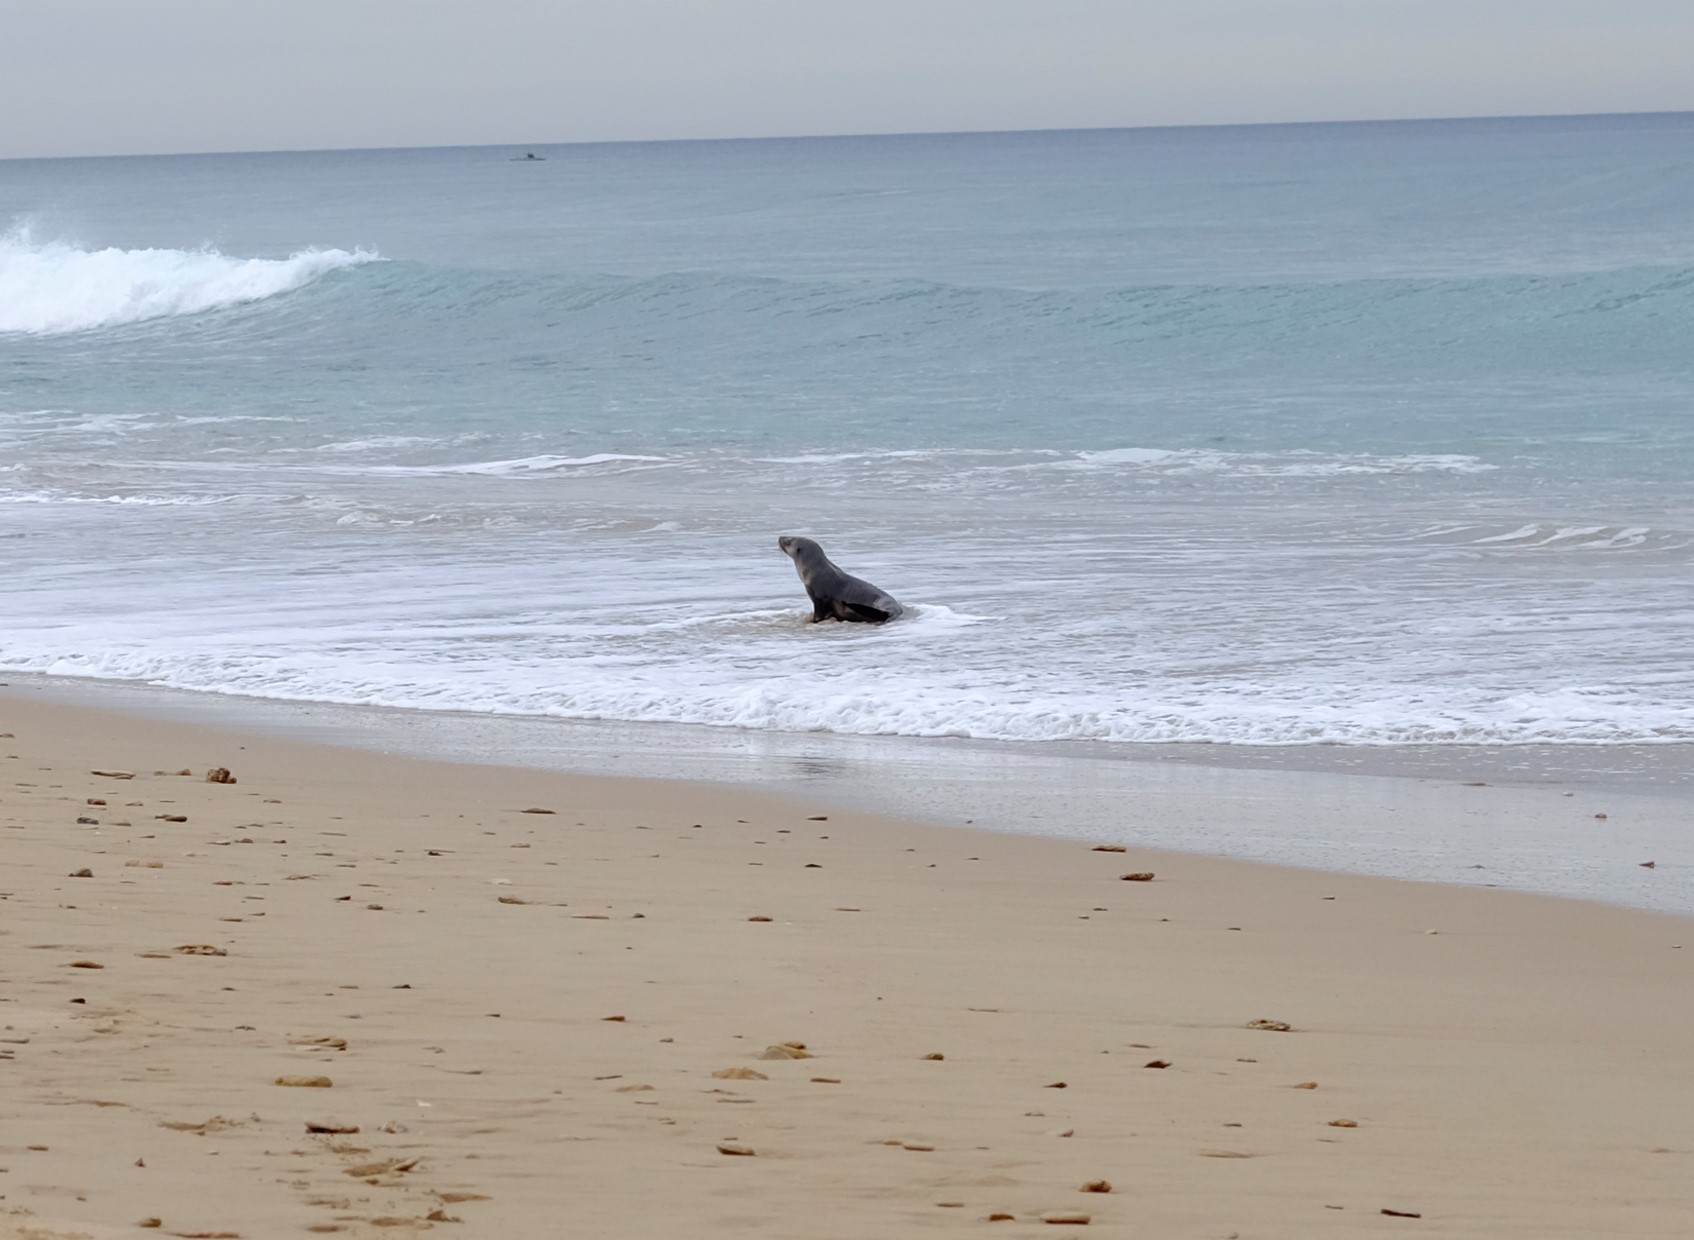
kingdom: Animalia
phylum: Chordata
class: Mammalia
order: Carnivora
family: Otariidae
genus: Arctocephalus
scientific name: Arctocephalus pusillus
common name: Brown fur seal
